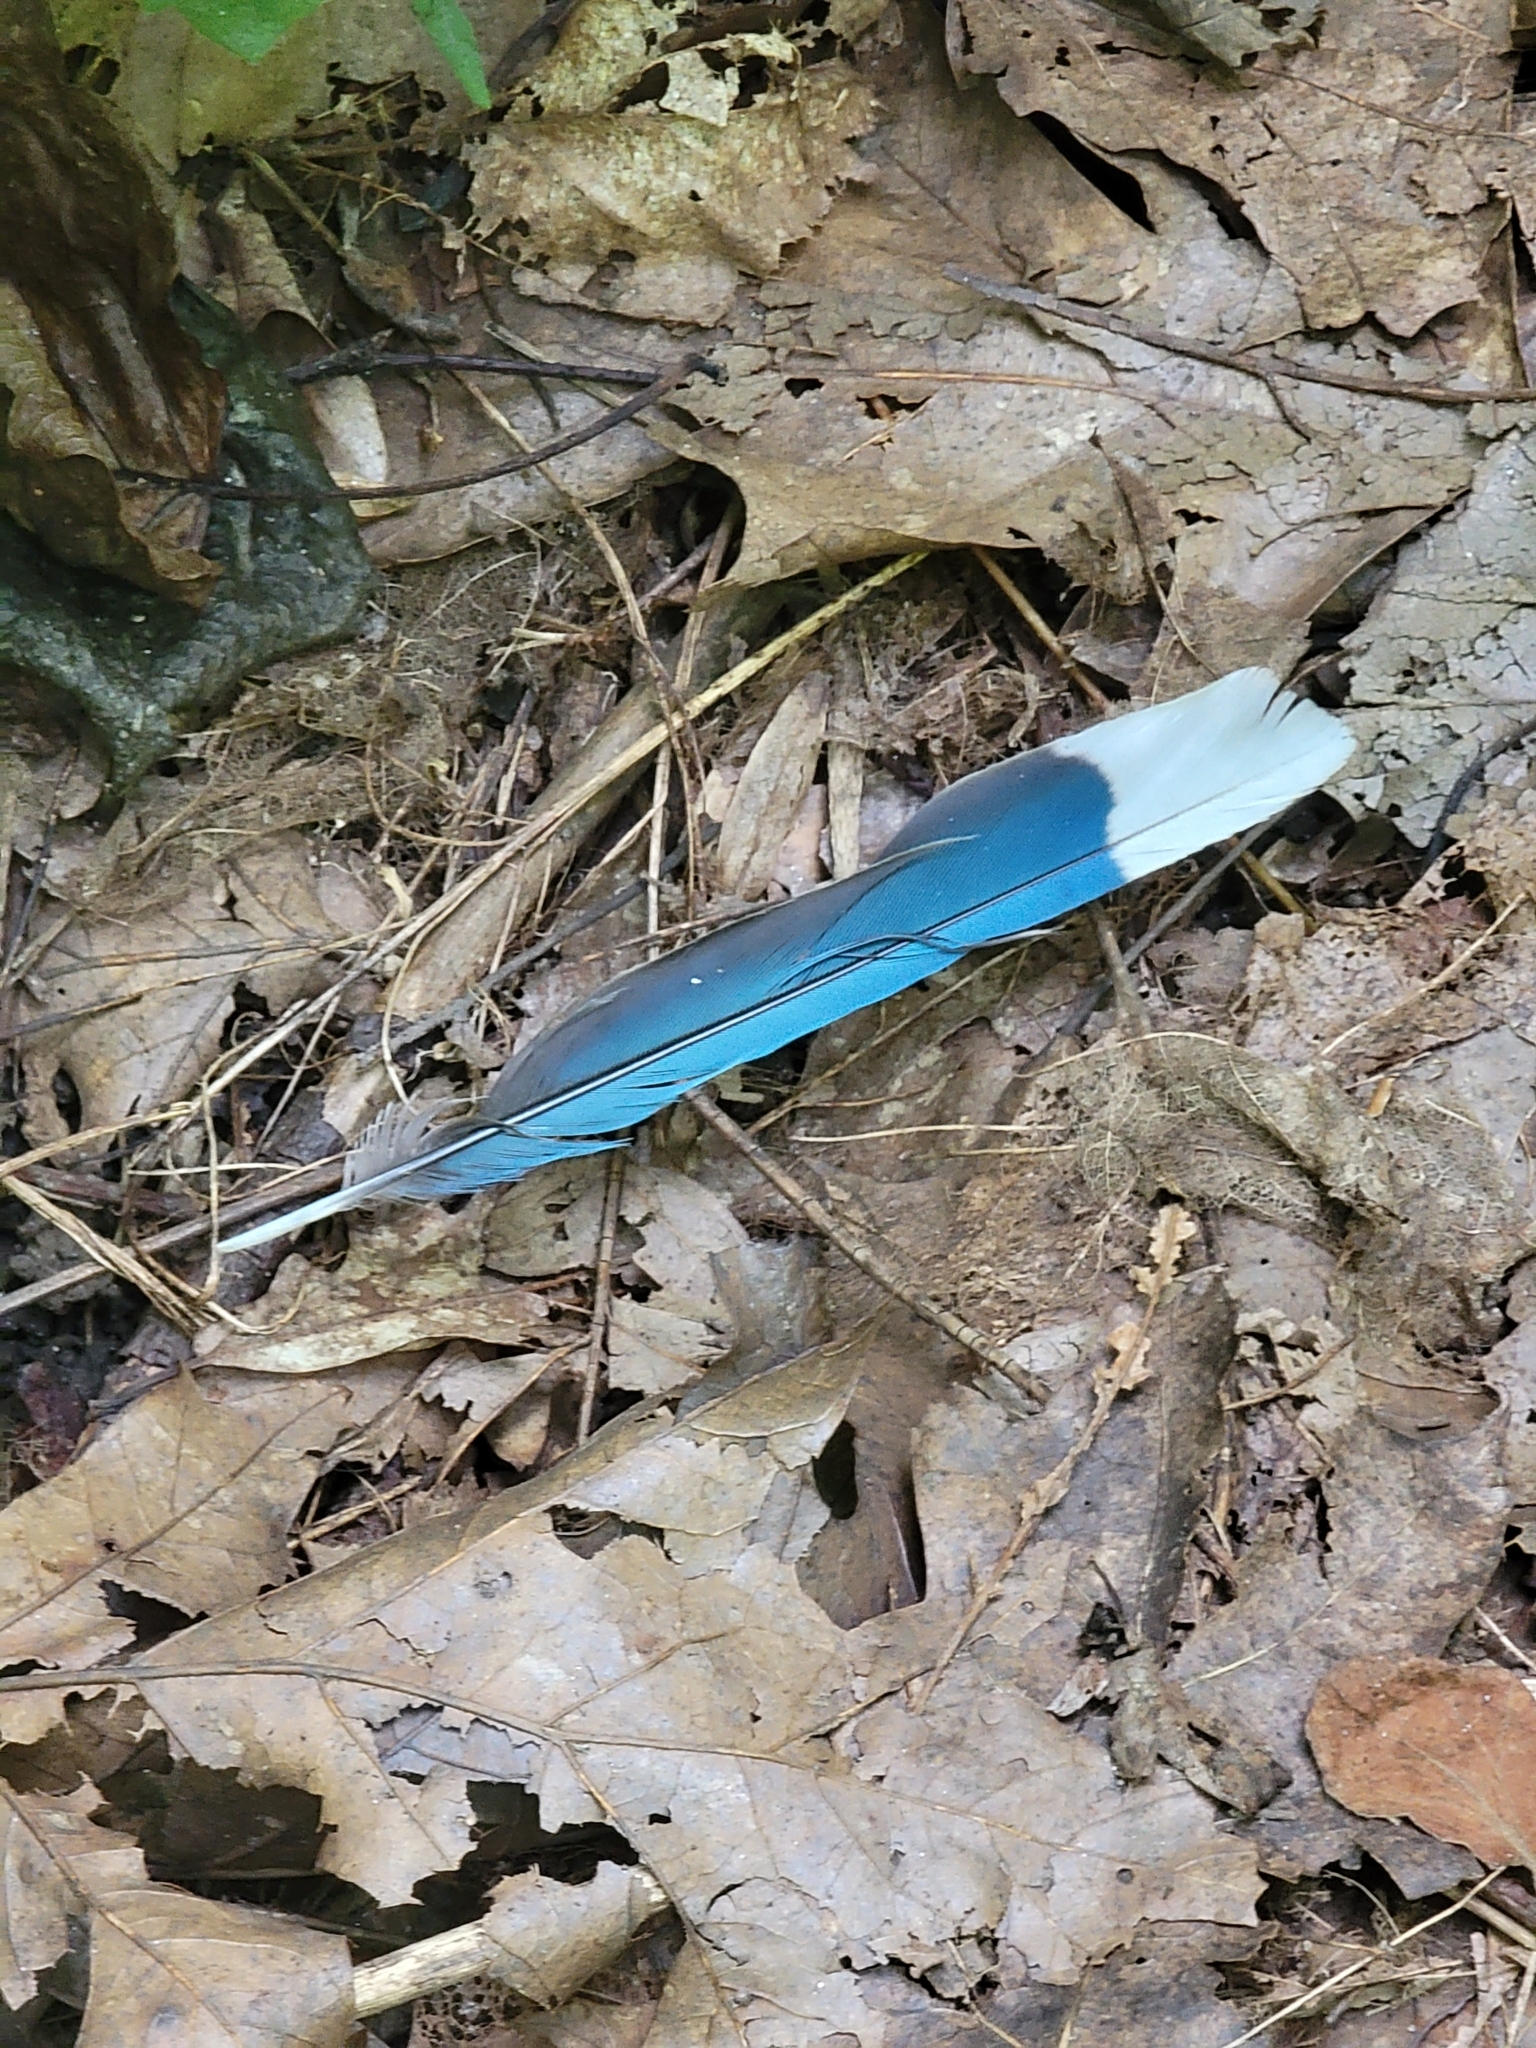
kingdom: Animalia
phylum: Chordata
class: Aves
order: Passeriformes
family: Corvidae
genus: Cyanocitta
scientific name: Cyanocitta cristata
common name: Blue jay
